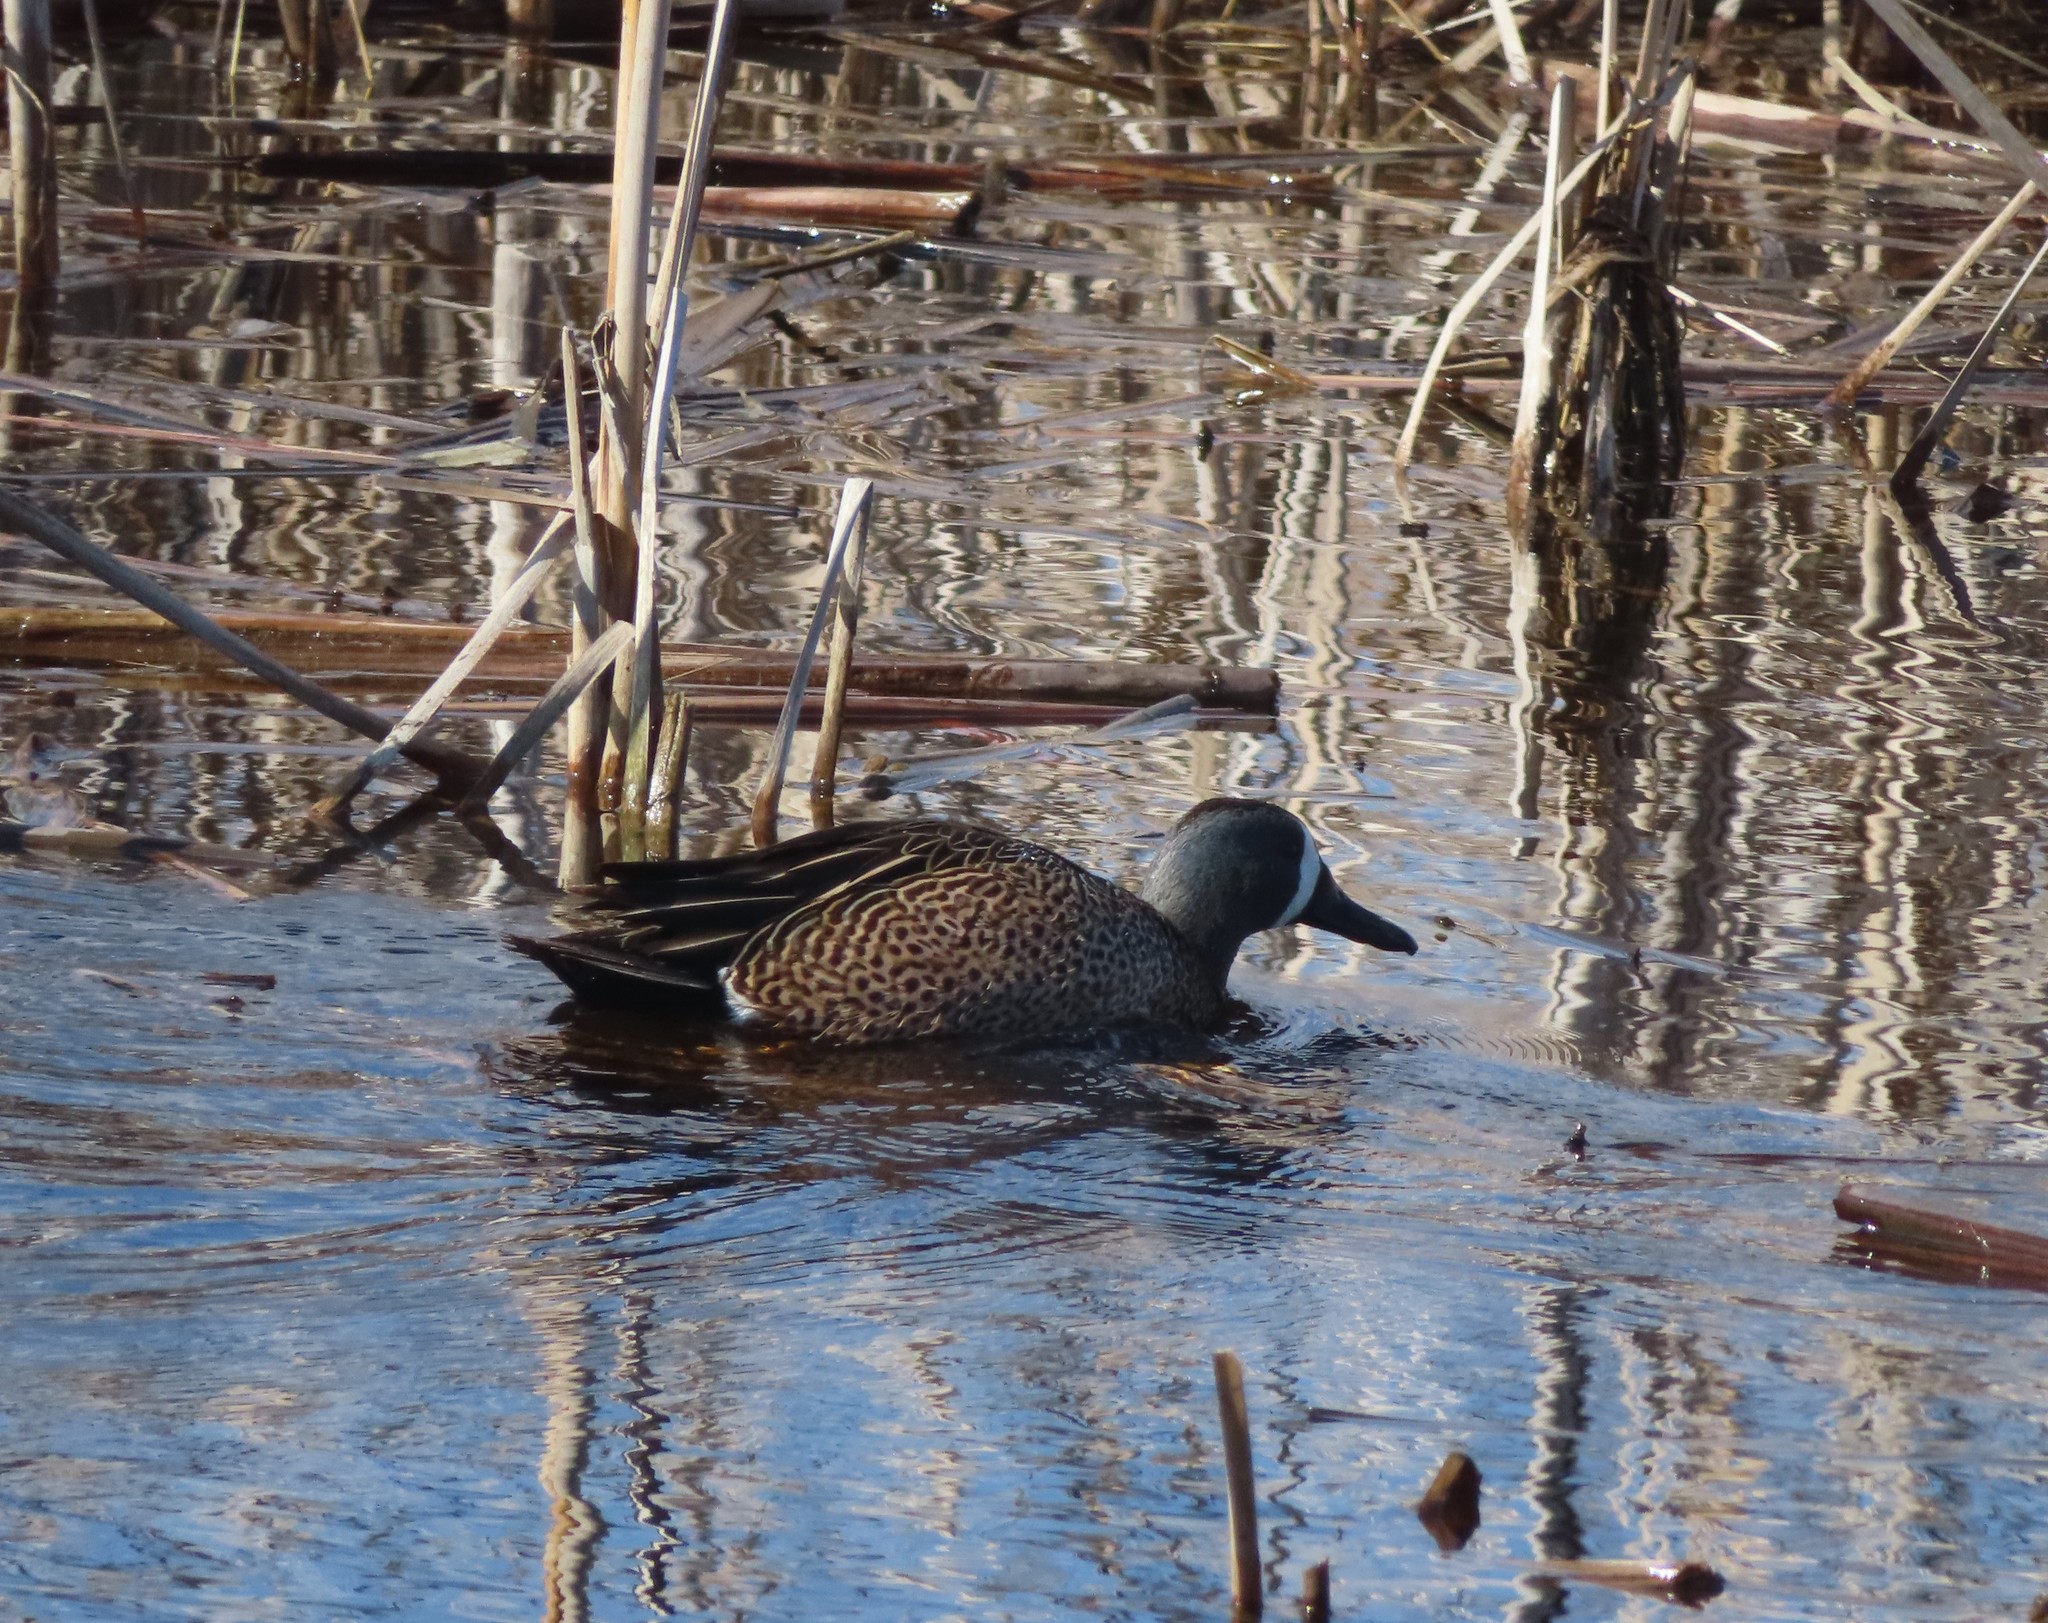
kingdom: Animalia
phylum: Chordata
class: Aves
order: Anseriformes
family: Anatidae
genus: Spatula
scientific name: Spatula discors
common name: Blue-winged teal
